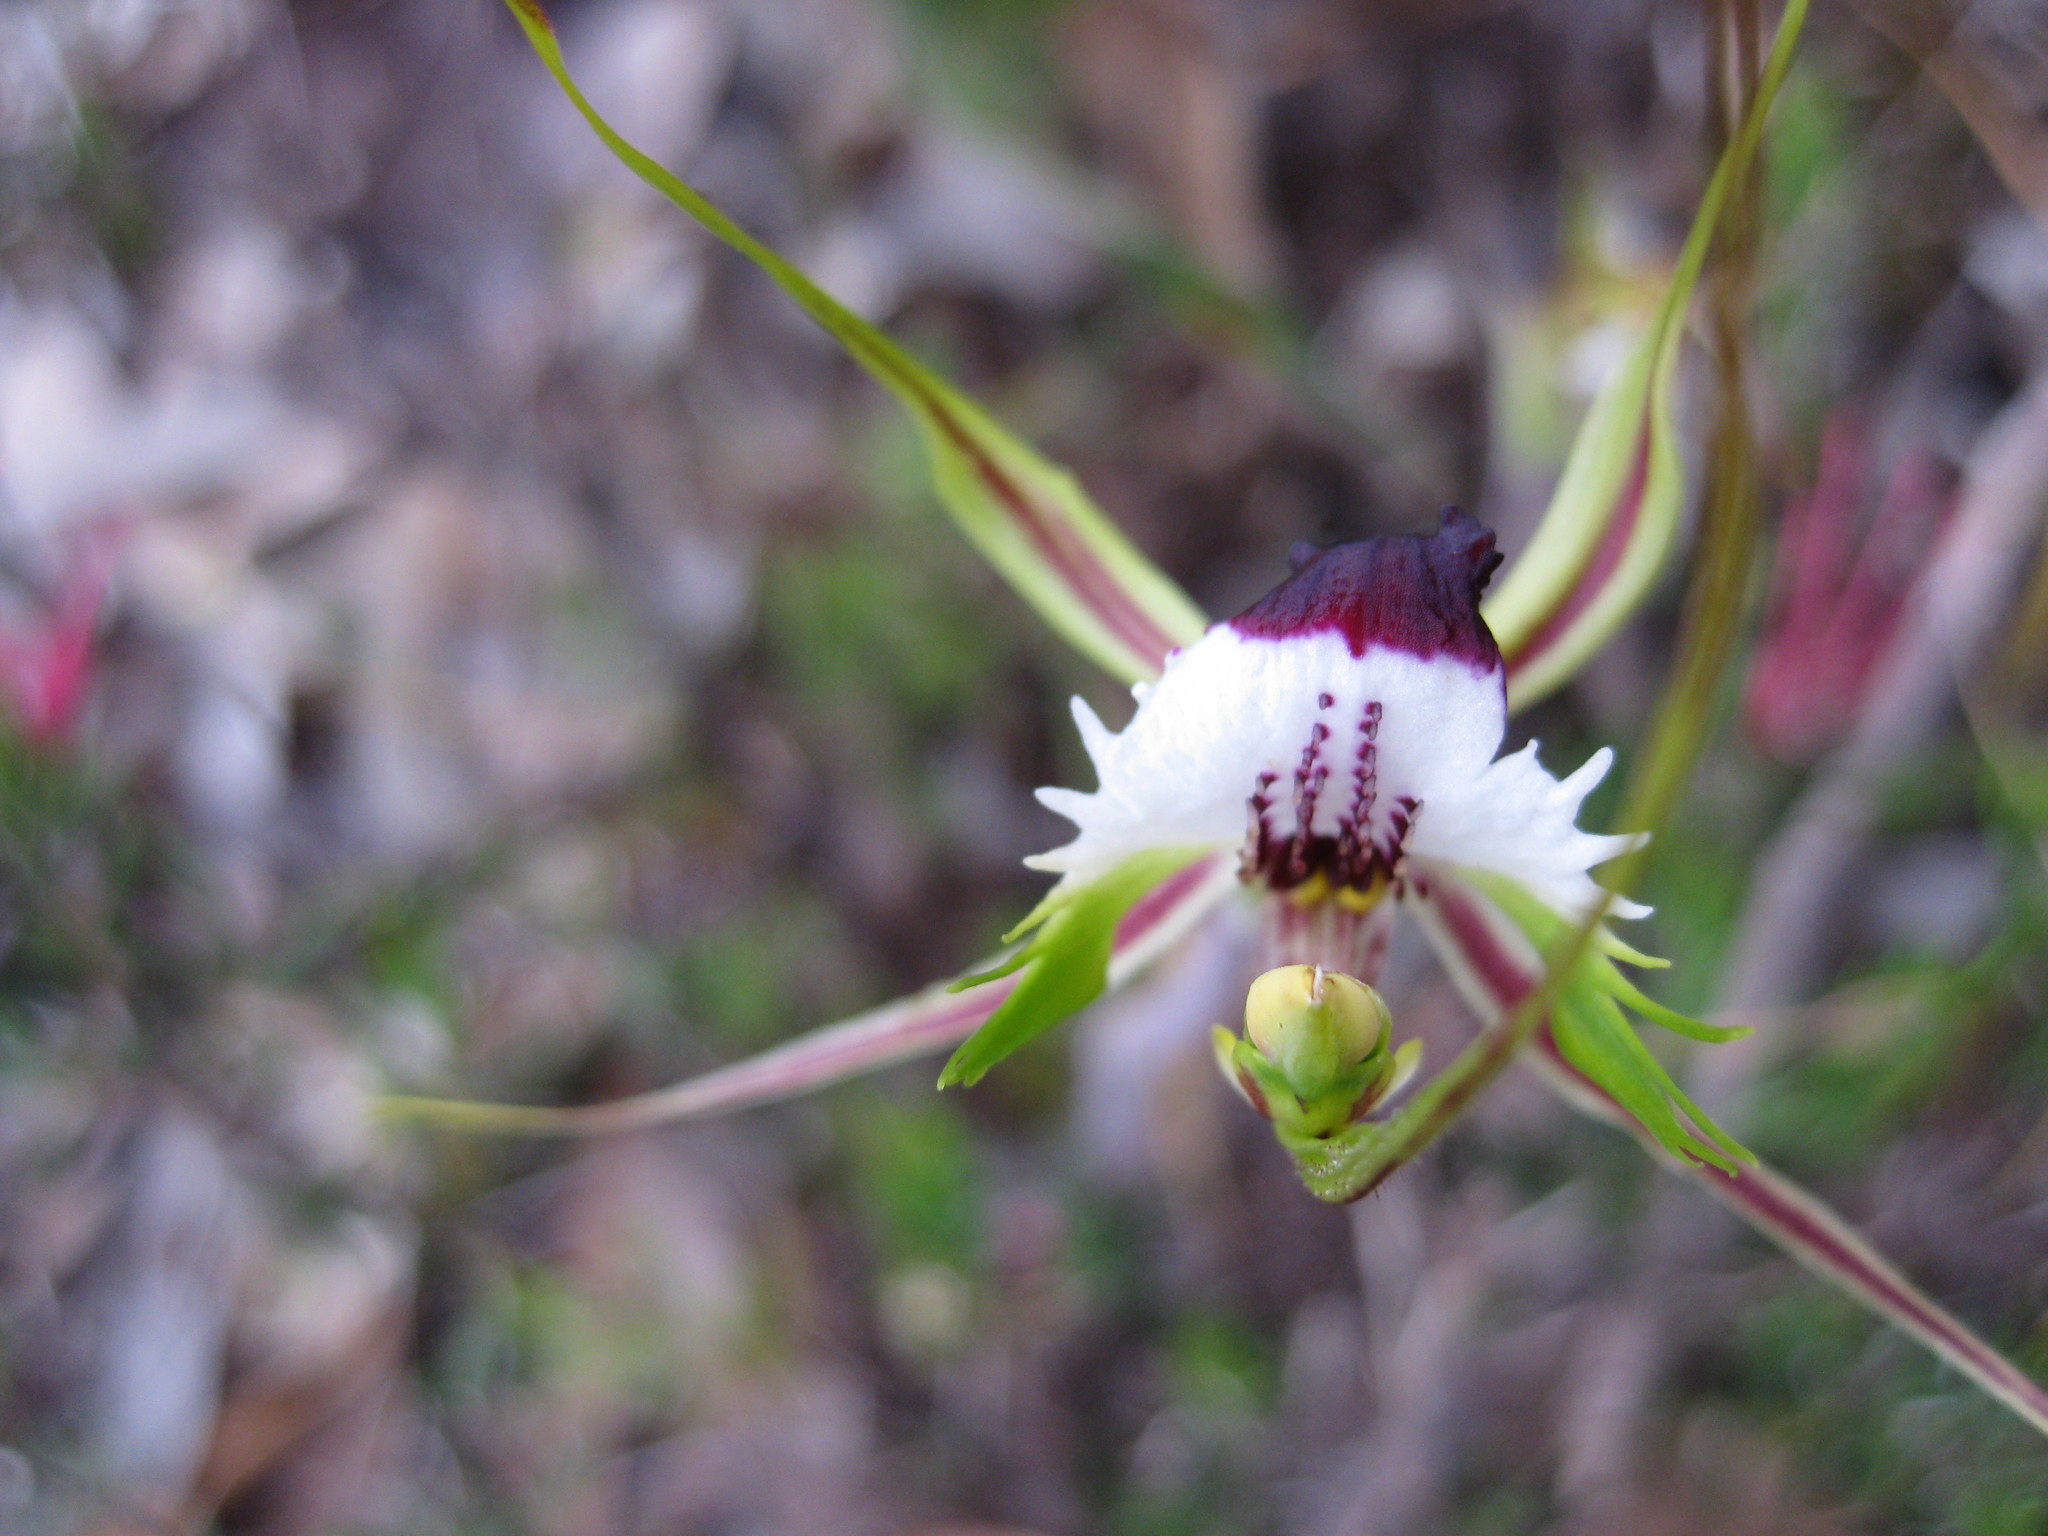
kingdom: Plantae
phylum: Tracheophyta
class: Liliopsida
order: Asparagales
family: Orchidaceae
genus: Caladenia
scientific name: Caladenia tentaculata
